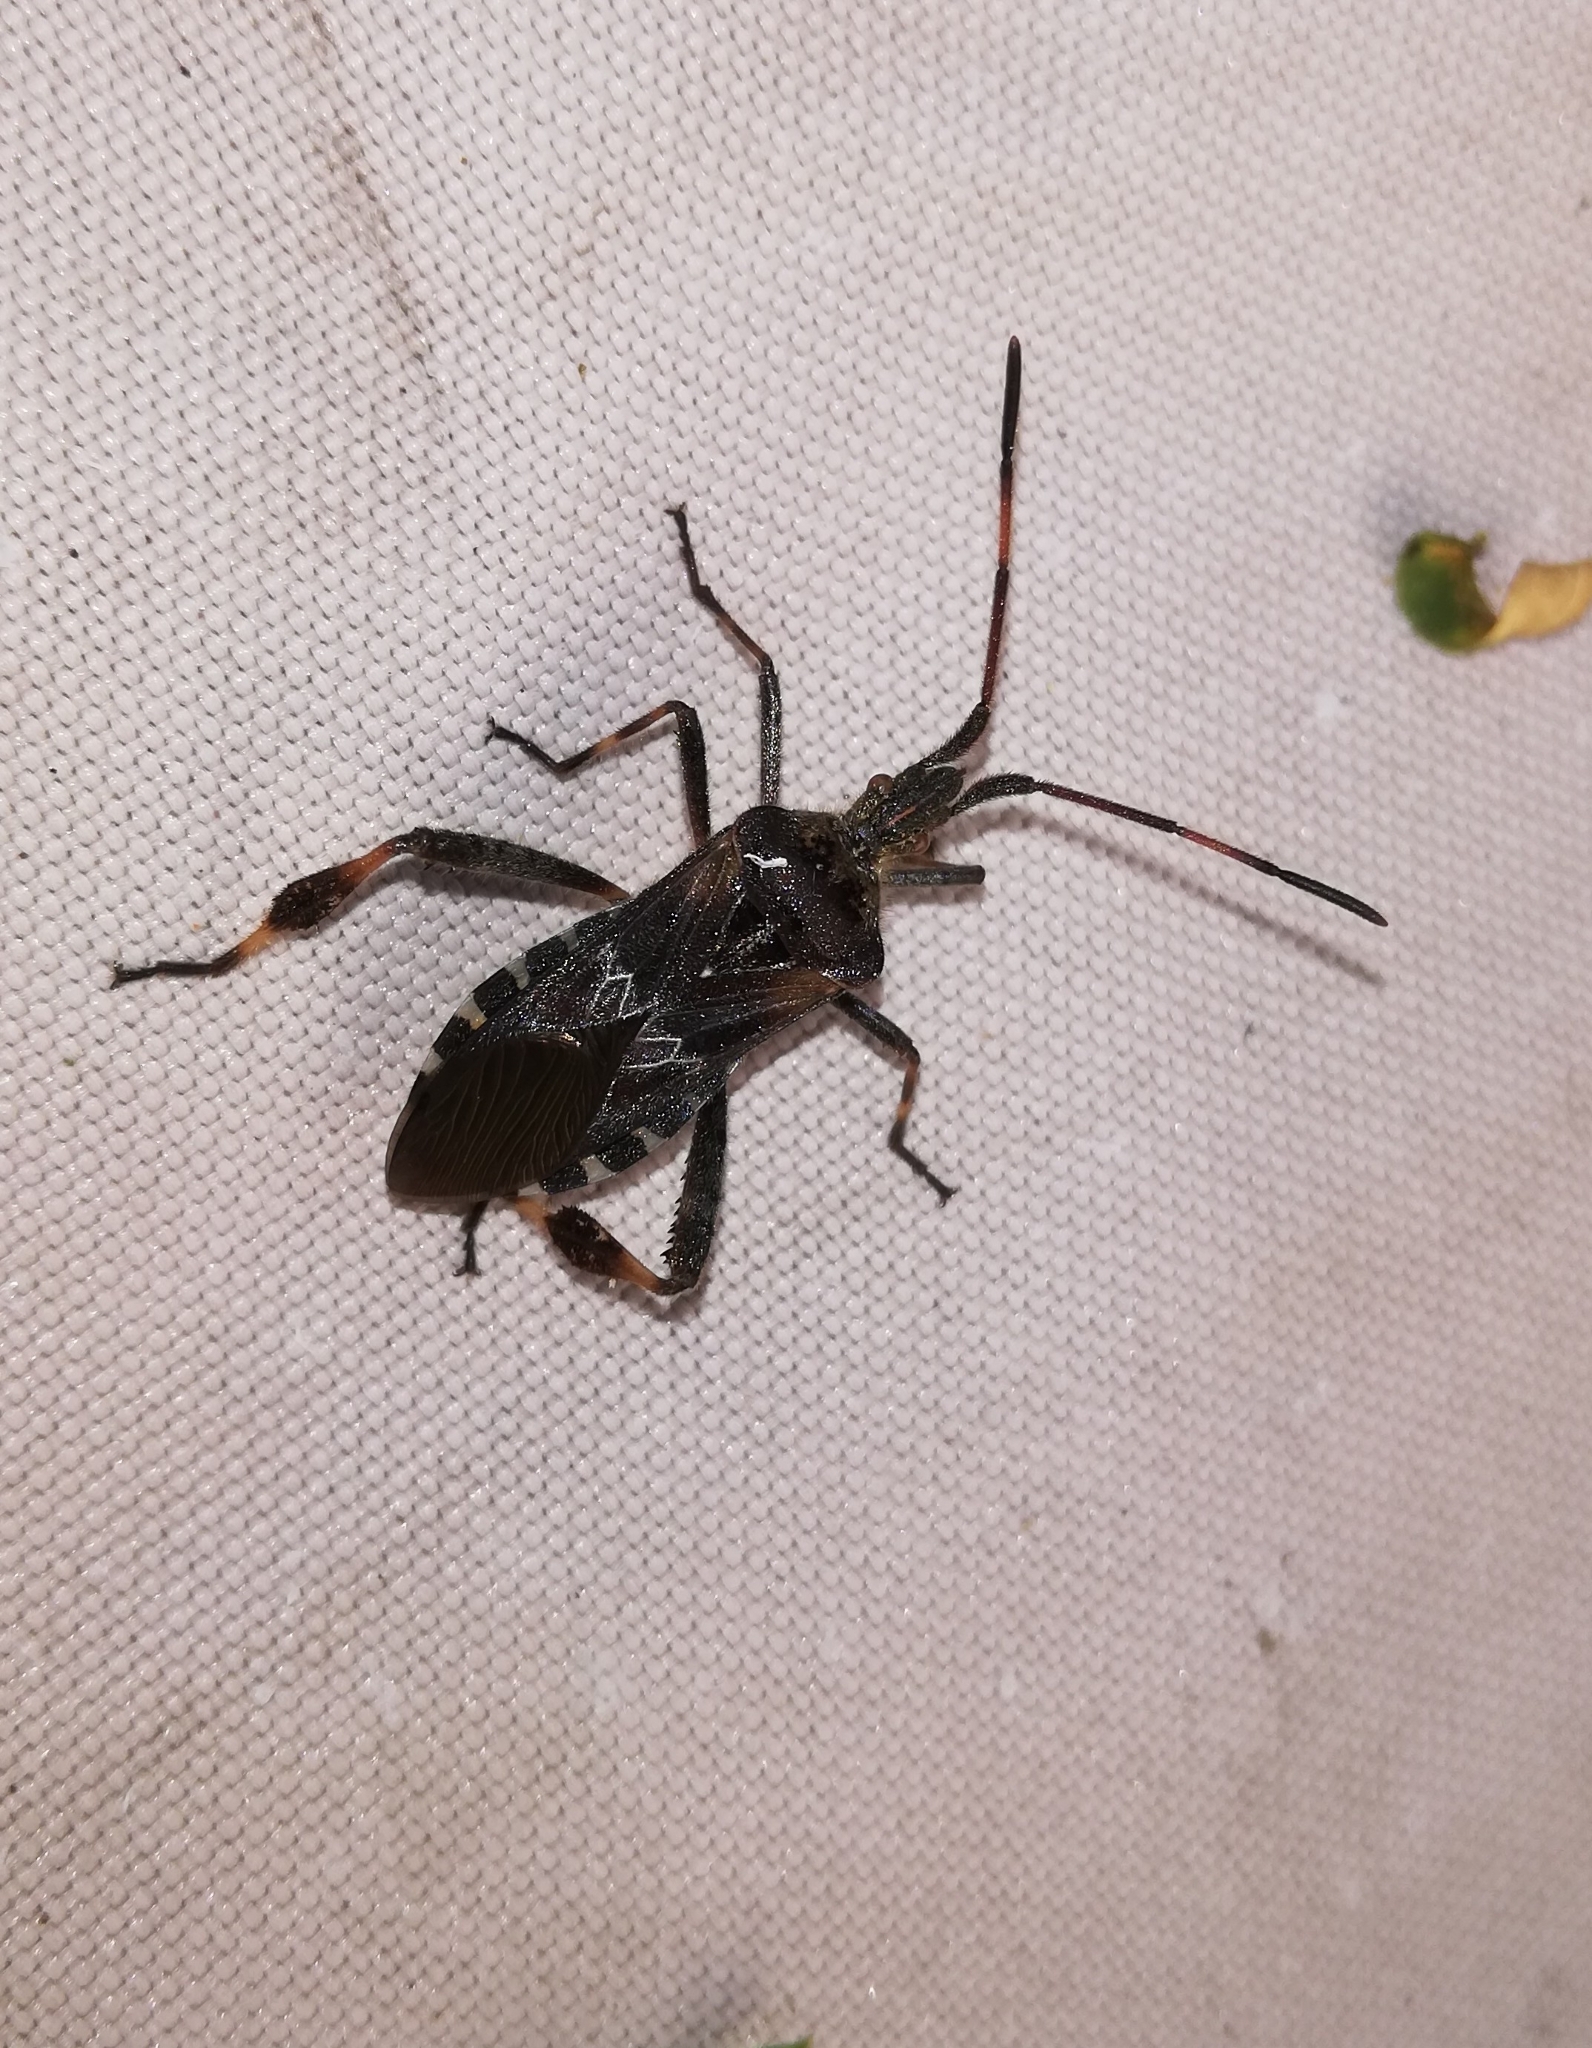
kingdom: Animalia
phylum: Arthropoda
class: Insecta
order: Hemiptera
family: Coreidae
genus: Leptoglossus
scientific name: Leptoglossus occidentalis
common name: Western conifer-seed bug
